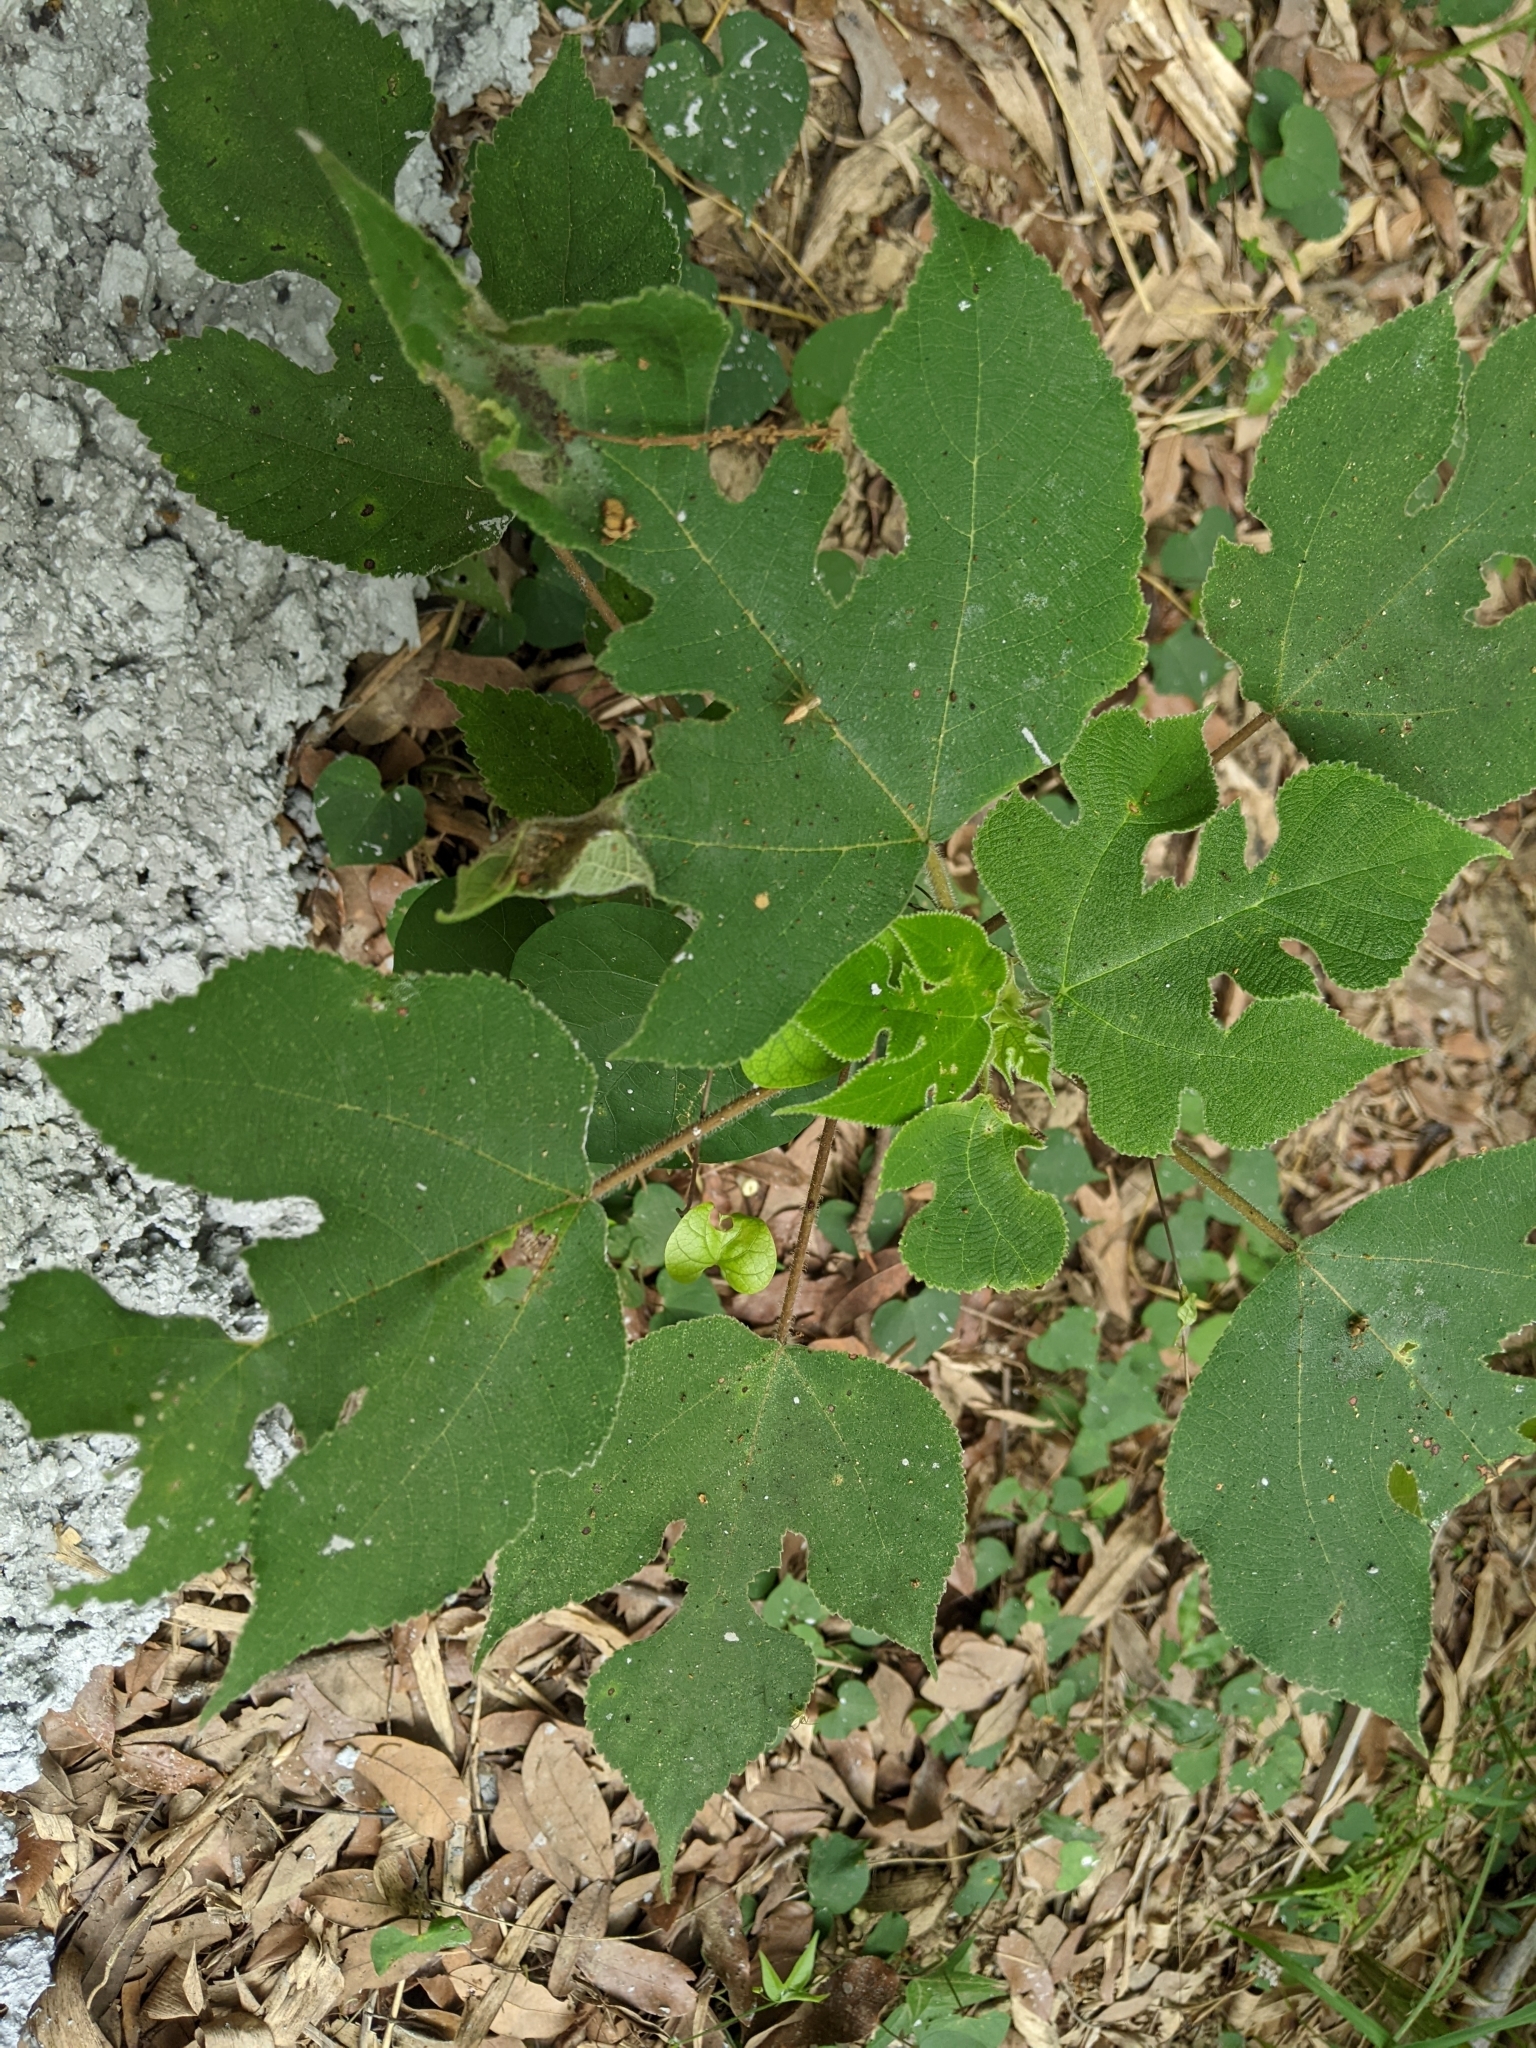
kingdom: Plantae
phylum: Tracheophyta
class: Magnoliopsida
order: Rosales
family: Moraceae
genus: Broussonetia
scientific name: Broussonetia papyrifera
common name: Paper mulberry
